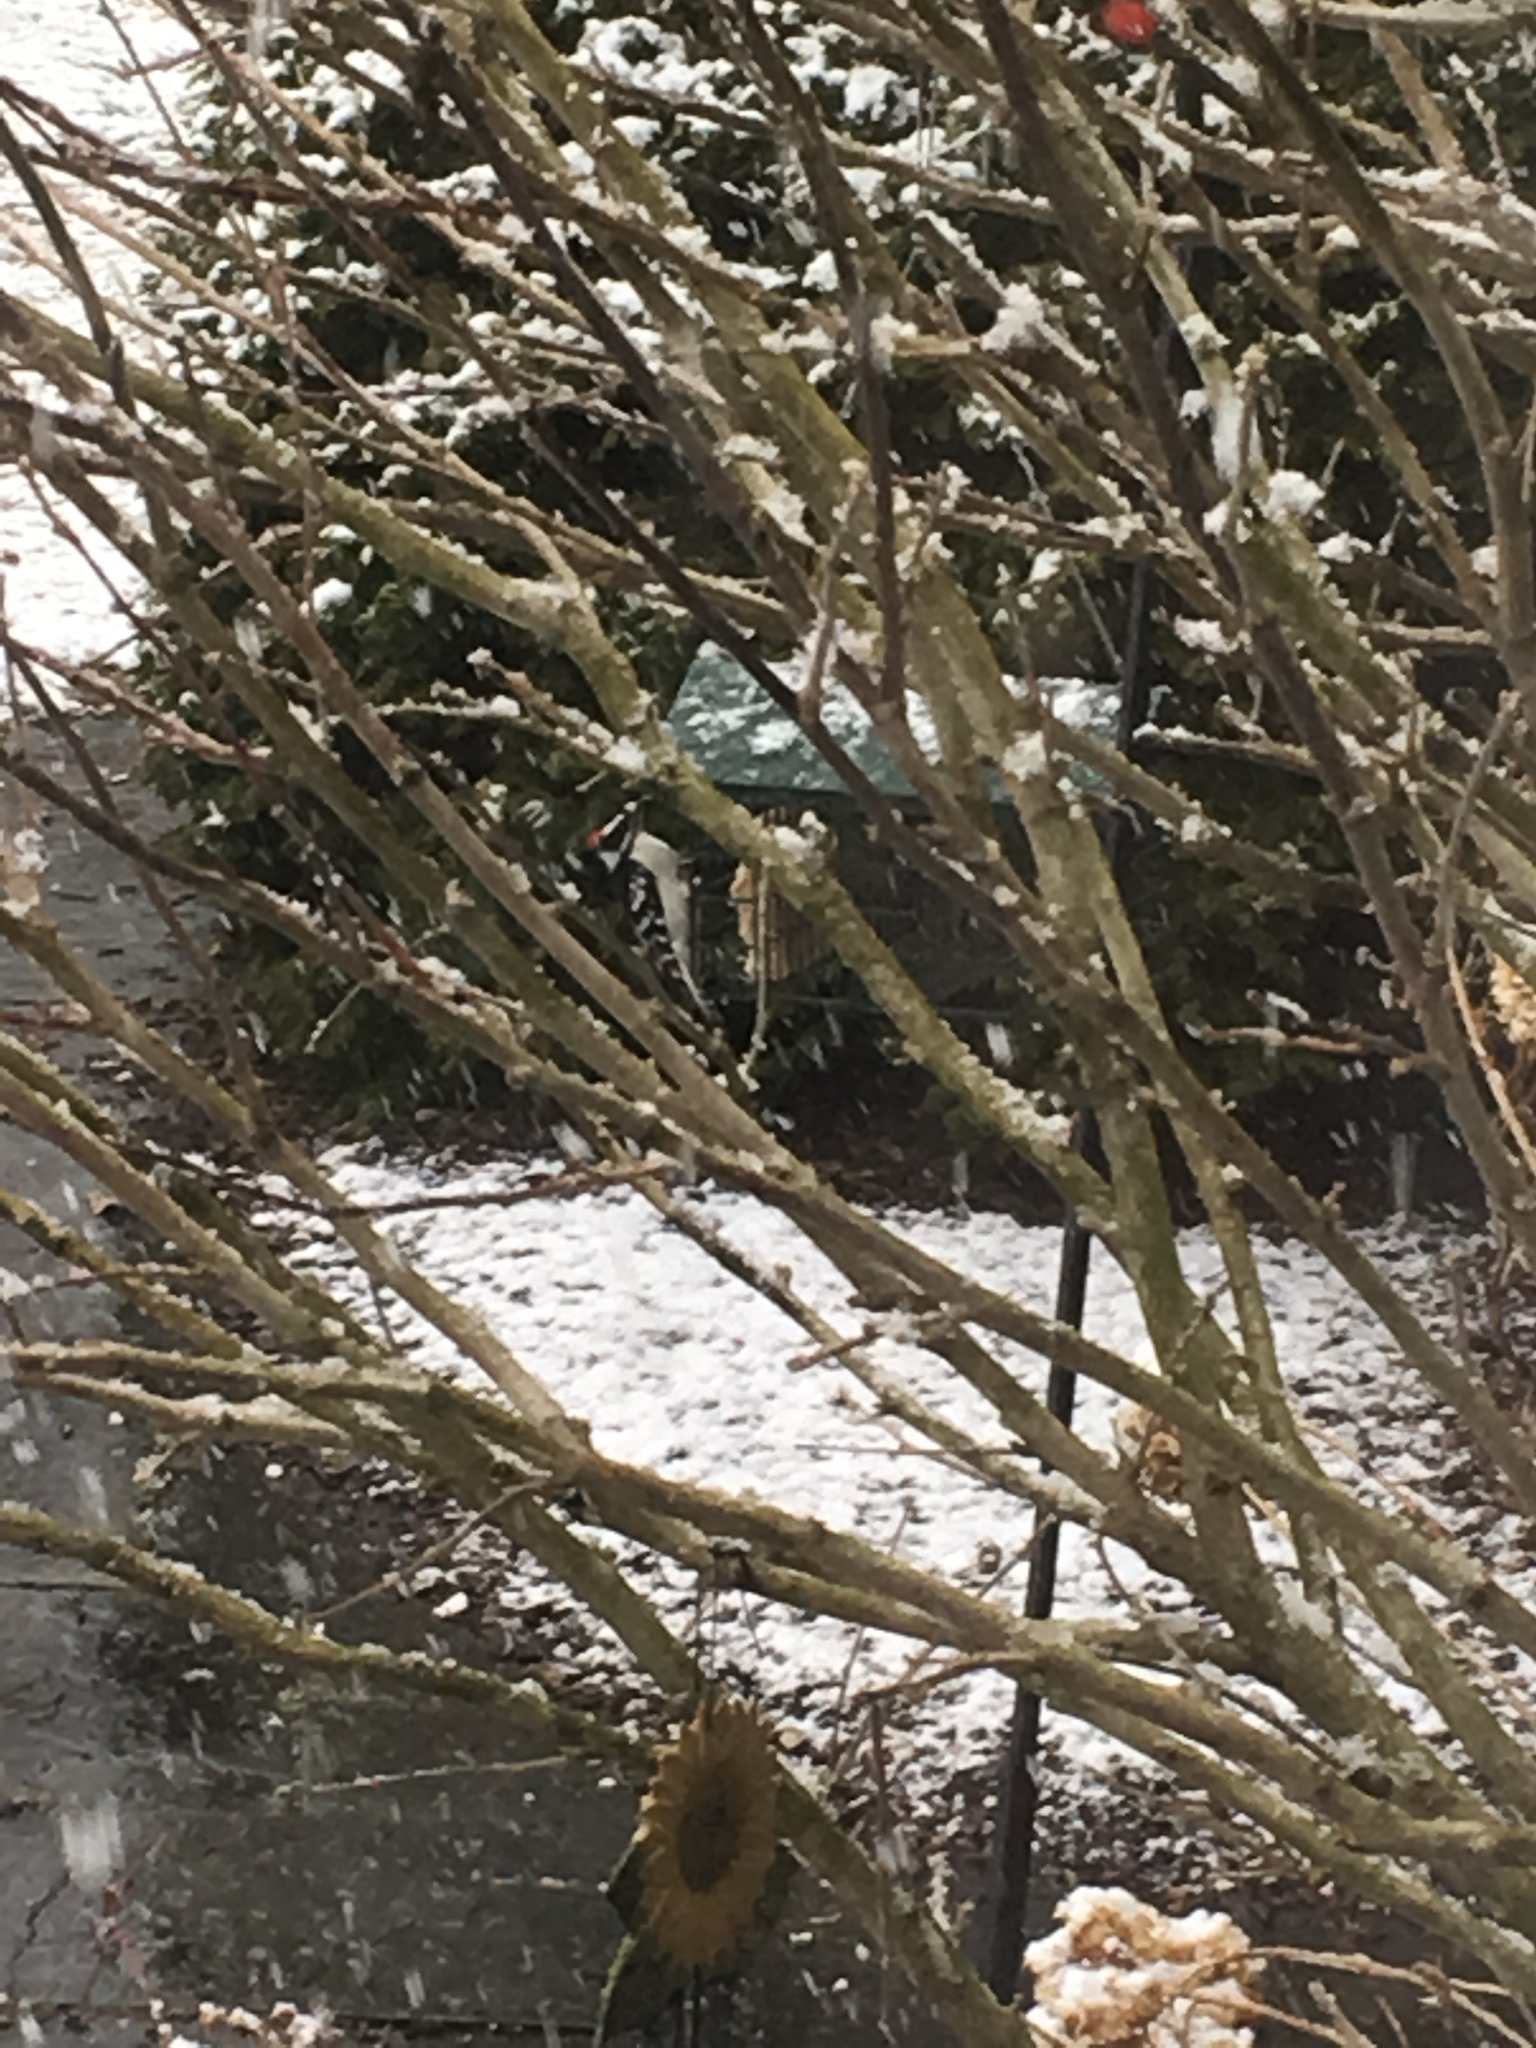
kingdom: Animalia
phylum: Chordata
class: Aves
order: Piciformes
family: Picidae
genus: Dryobates
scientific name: Dryobates pubescens
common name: Downy woodpecker
